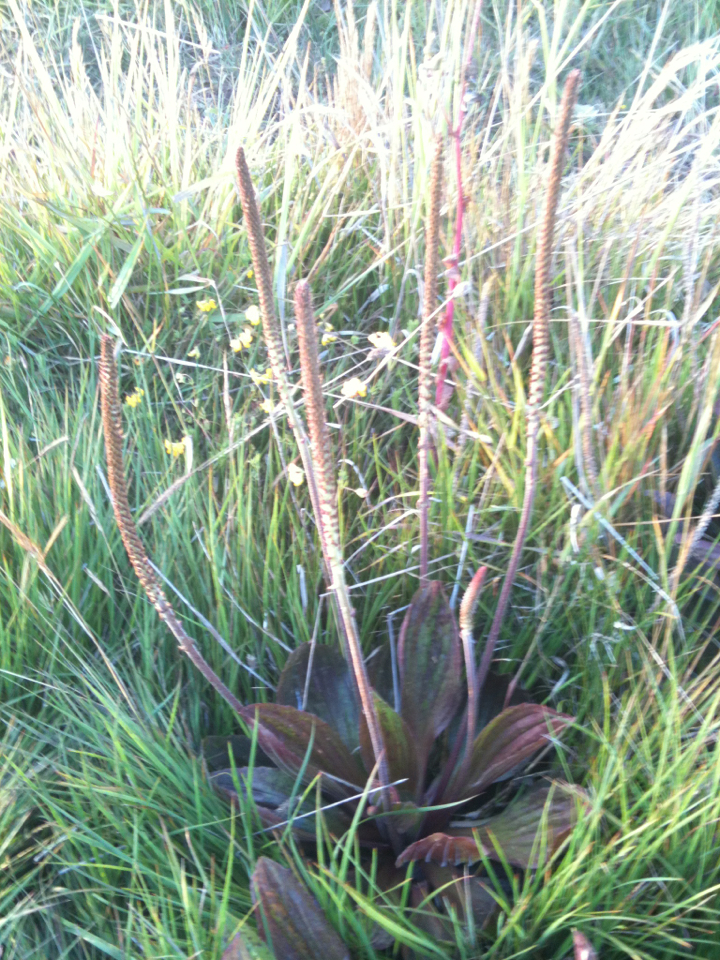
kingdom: Plantae
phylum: Tracheophyta
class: Magnoliopsida
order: Lamiales
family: Plantaginaceae
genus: Plantago
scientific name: Plantago subnuda
